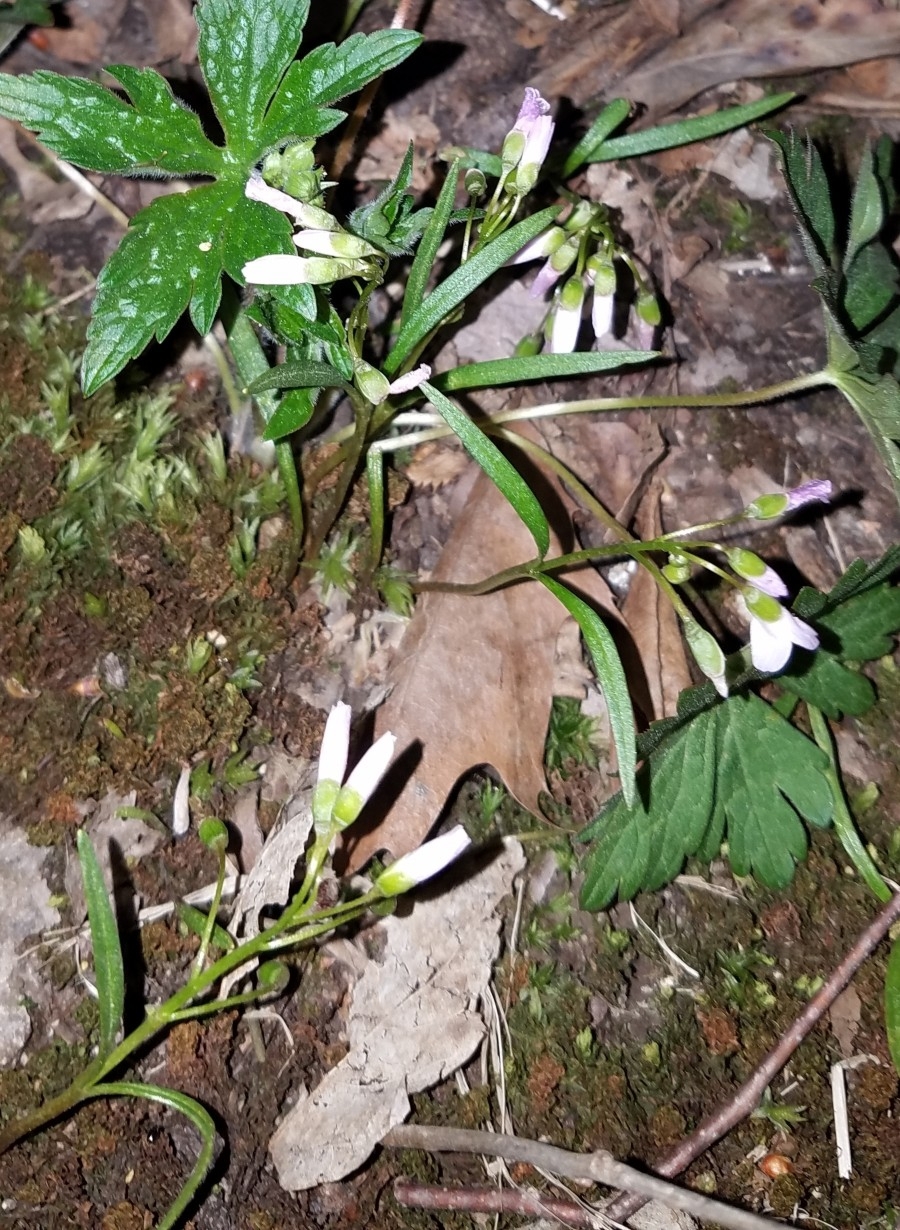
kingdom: Plantae
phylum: Tracheophyta
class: Magnoliopsida
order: Caryophyllales
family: Montiaceae
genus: Claytonia
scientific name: Claytonia virginica
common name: Virginia springbeauty
